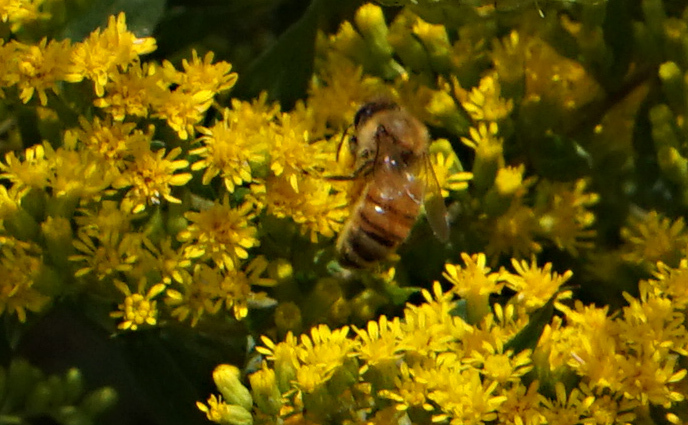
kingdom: Animalia
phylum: Arthropoda
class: Insecta
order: Hymenoptera
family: Apidae
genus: Apis
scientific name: Apis mellifera
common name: Honey bee
